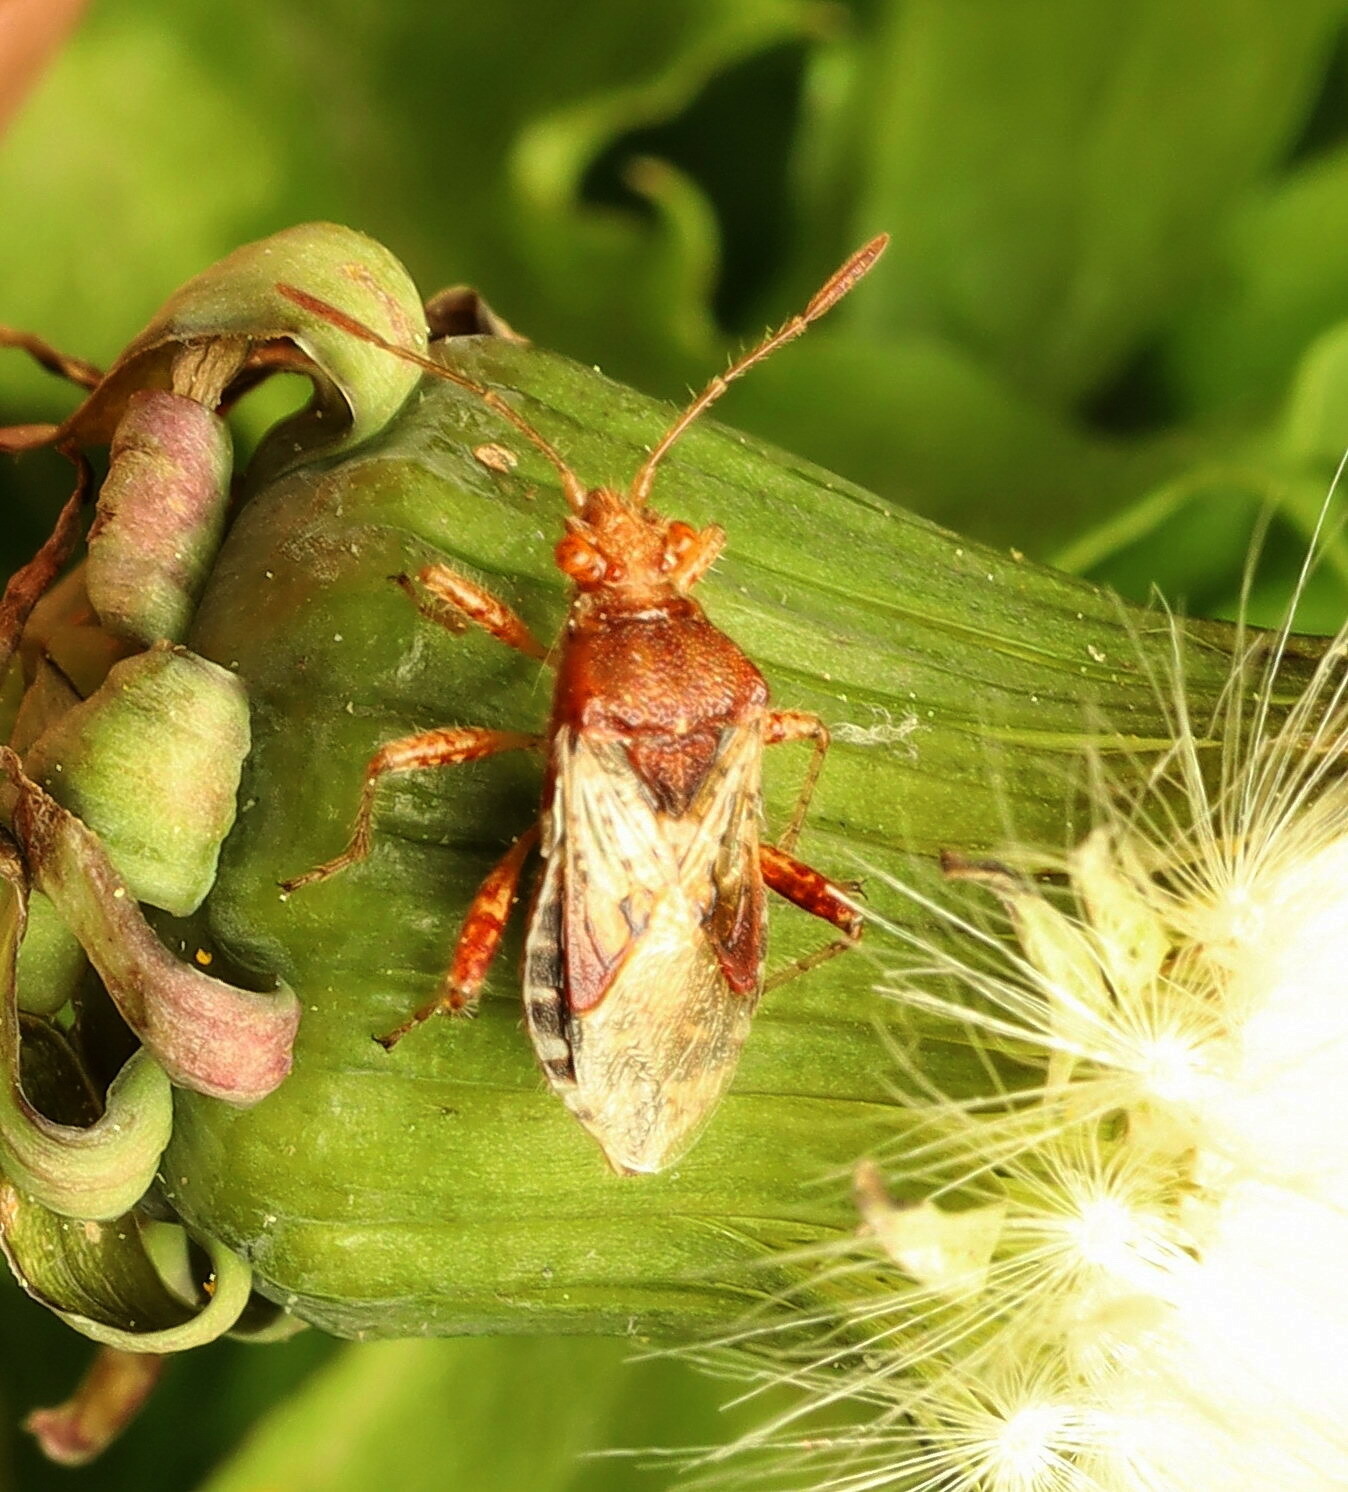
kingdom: Animalia
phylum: Arthropoda
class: Insecta
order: Hemiptera
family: Rhopalidae
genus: Rhopalus
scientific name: Rhopalus subrufus
